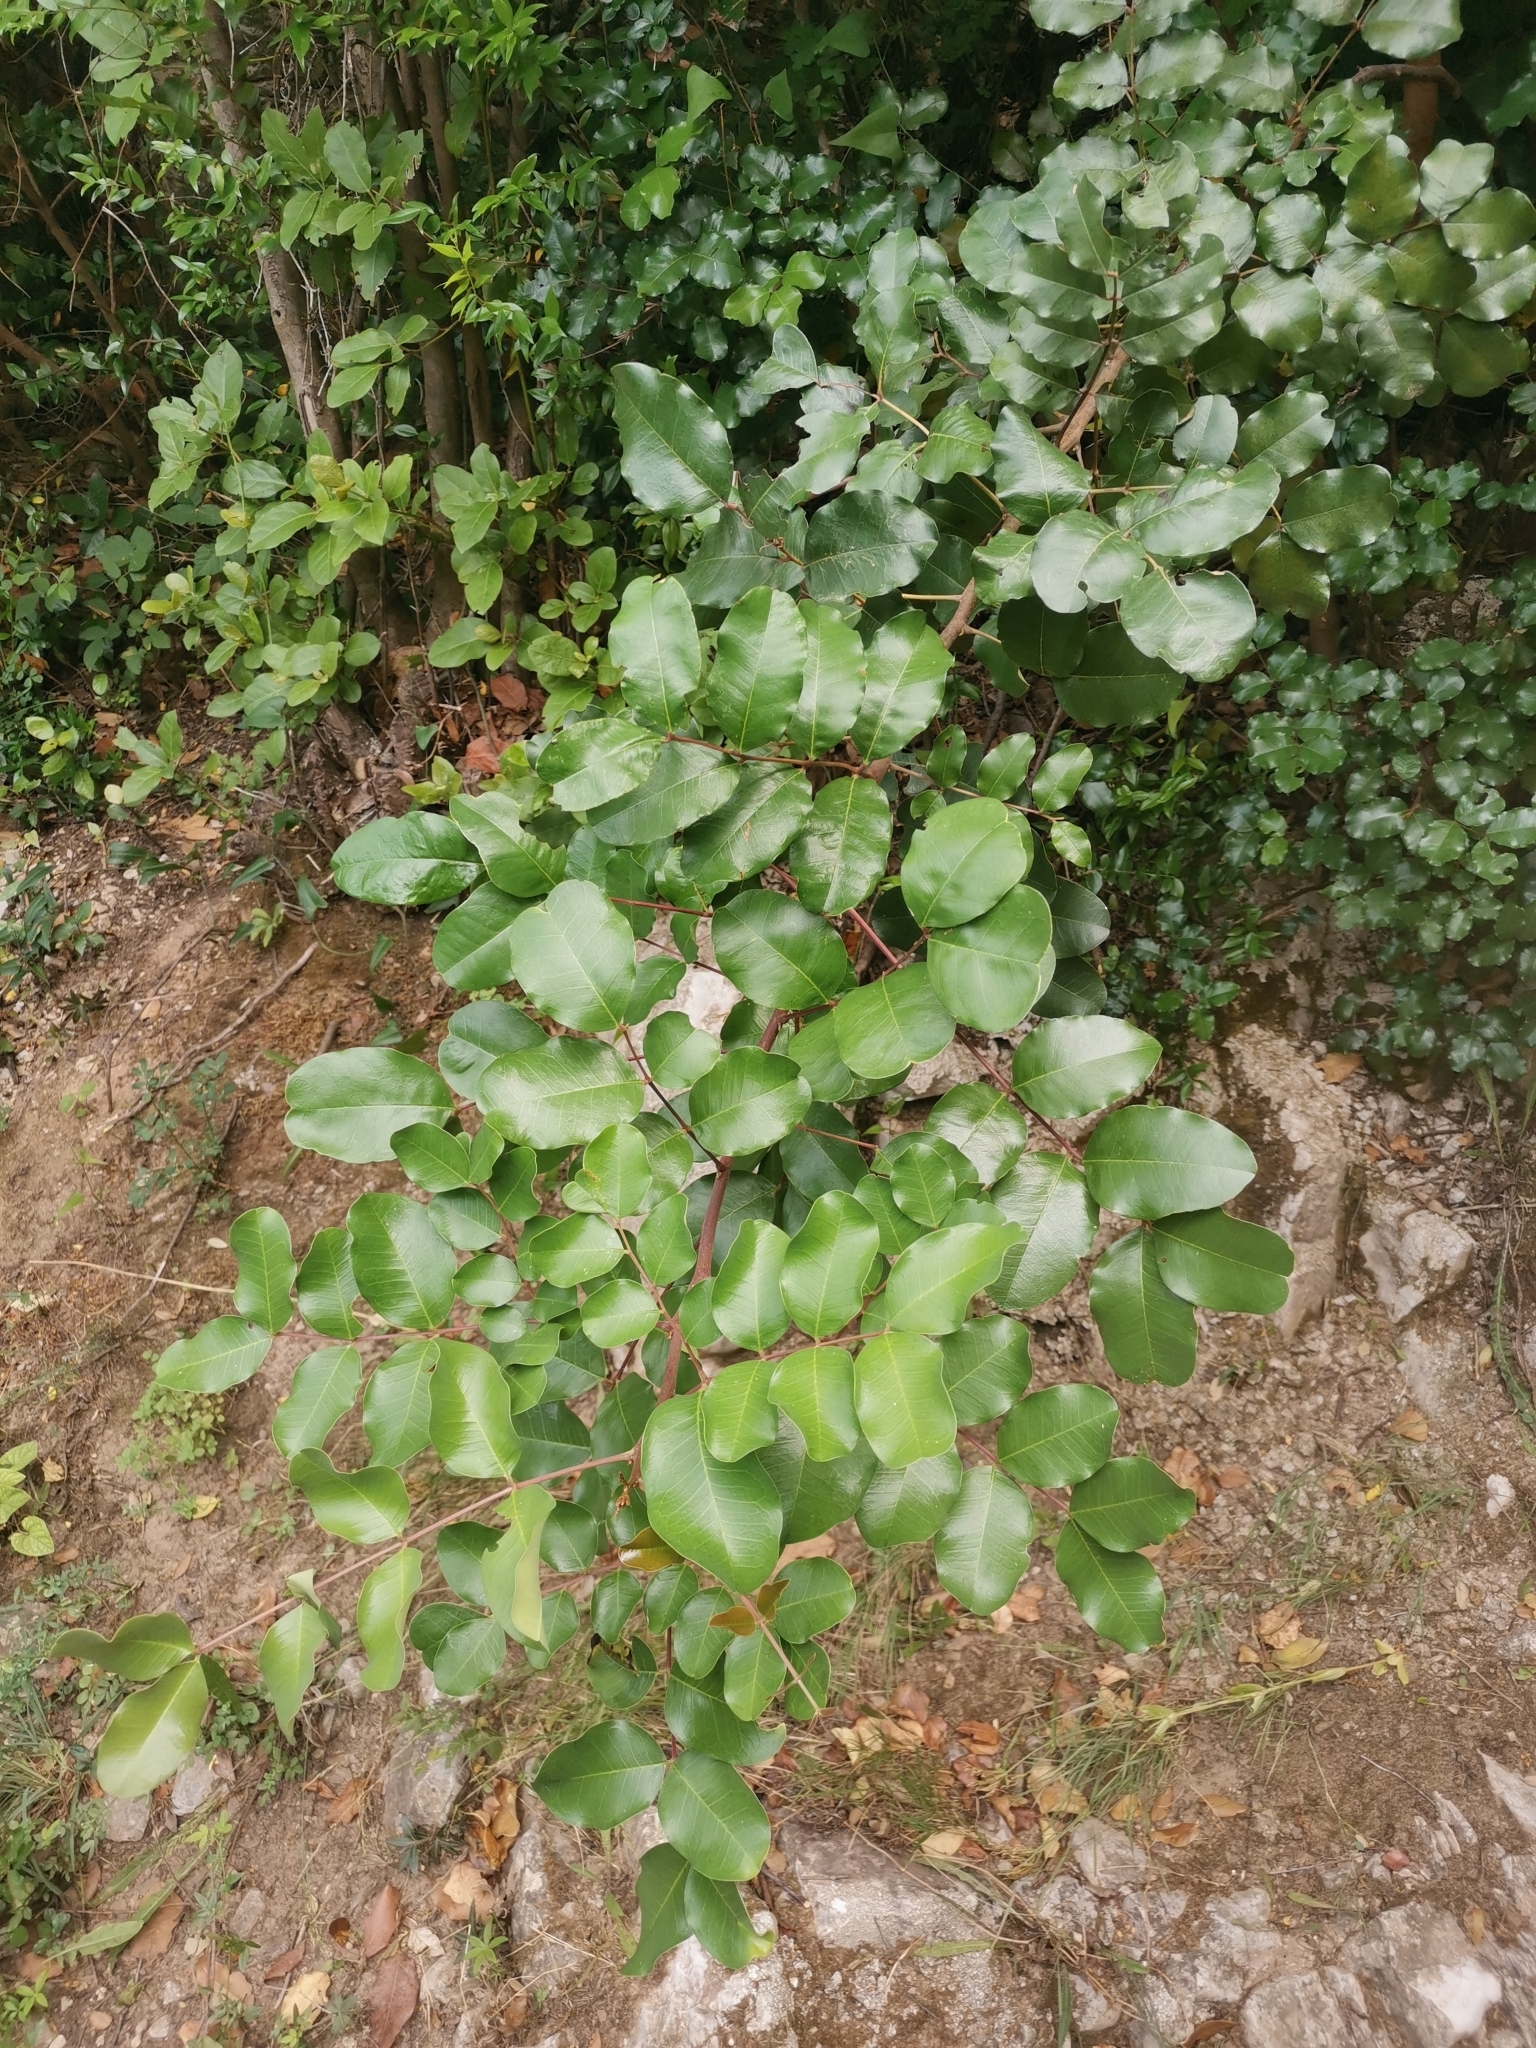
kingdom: Plantae
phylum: Tracheophyta
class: Magnoliopsida
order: Fabales
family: Fabaceae
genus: Ceratonia
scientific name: Ceratonia siliqua
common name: Carob
